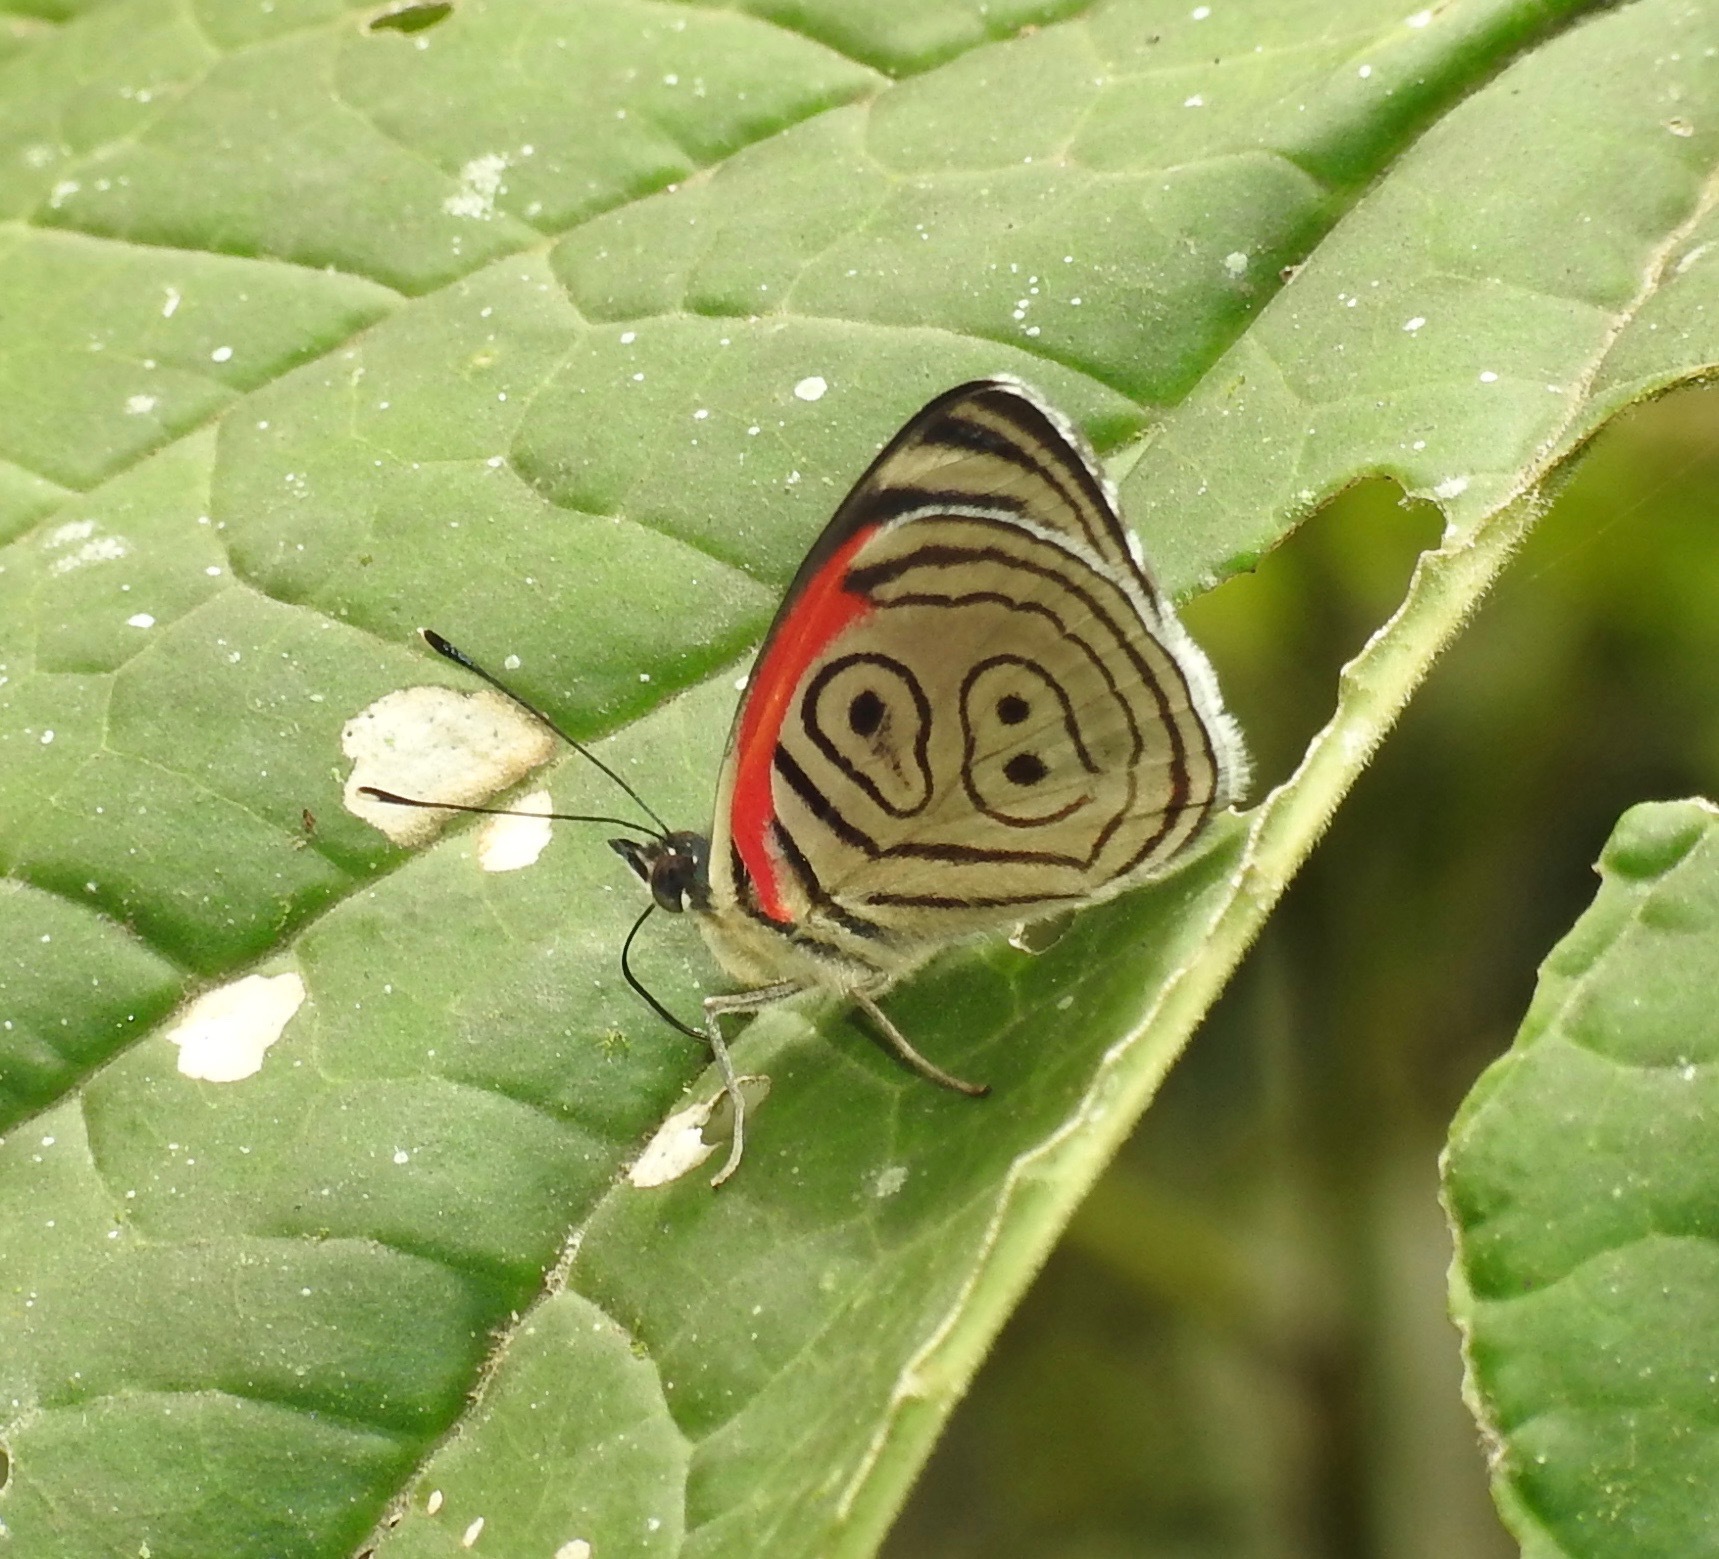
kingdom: Animalia
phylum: Arthropoda
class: Insecta
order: Lepidoptera
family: Nymphalidae
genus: Diaethria
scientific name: Diaethria clymena
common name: Widespread eighty-eight
